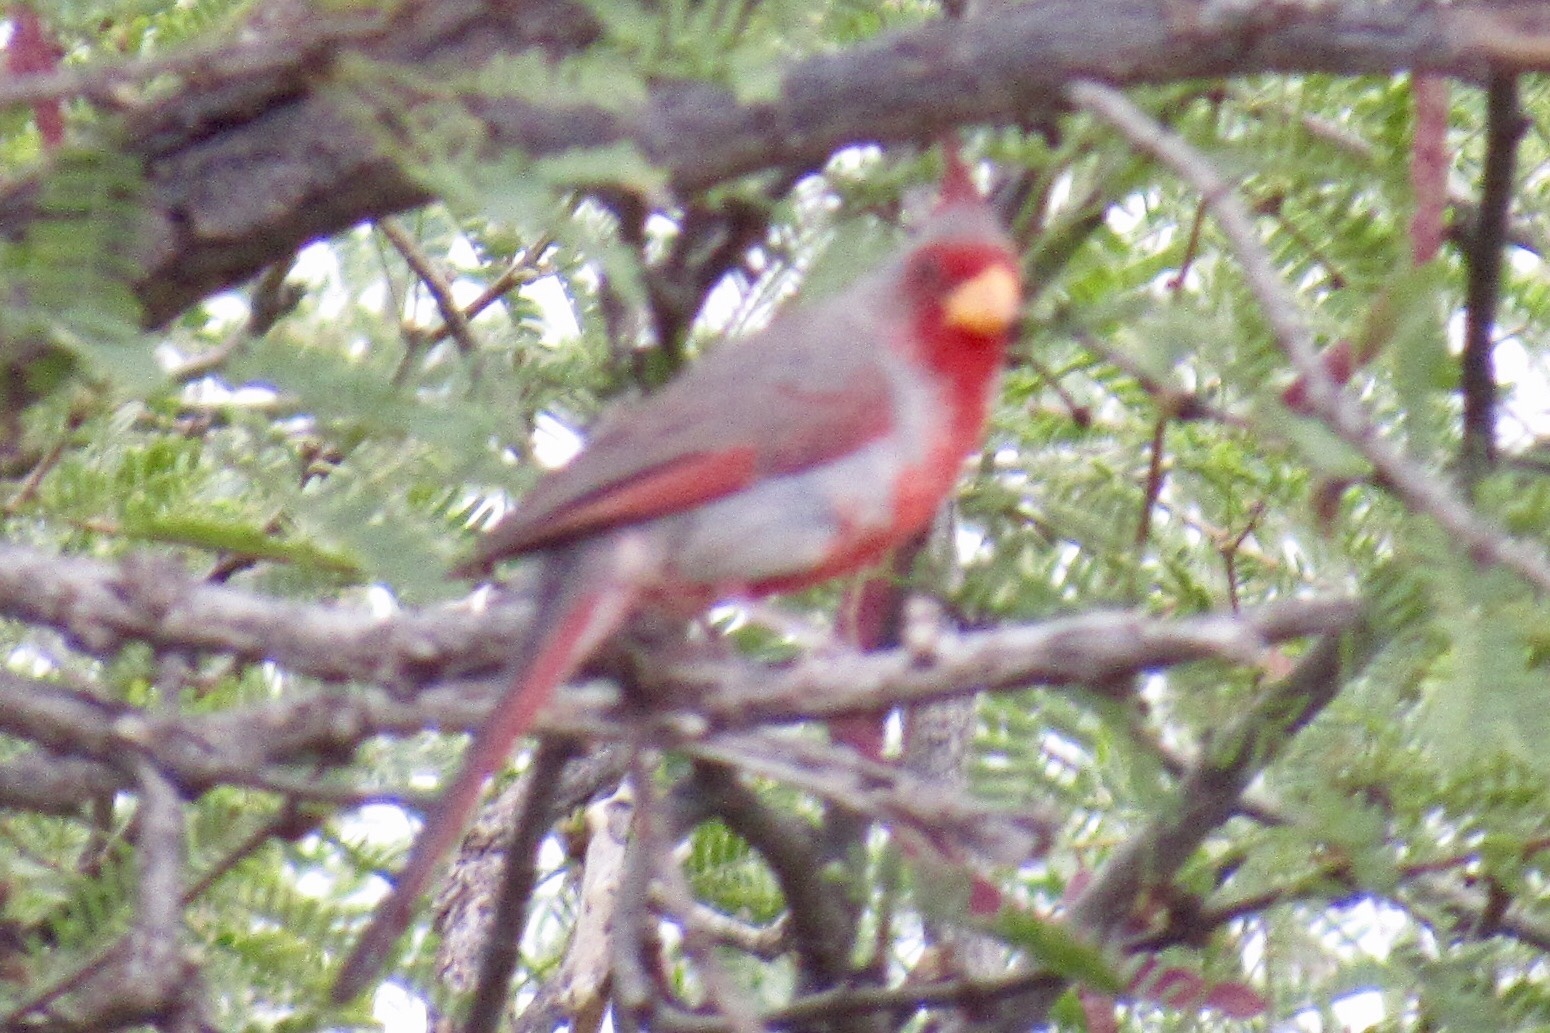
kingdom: Animalia
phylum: Chordata
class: Aves
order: Passeriformes
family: Cardinalidae
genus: Cardinalis
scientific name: Cardinalis sinuatus
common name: Pyrrhuloxia
